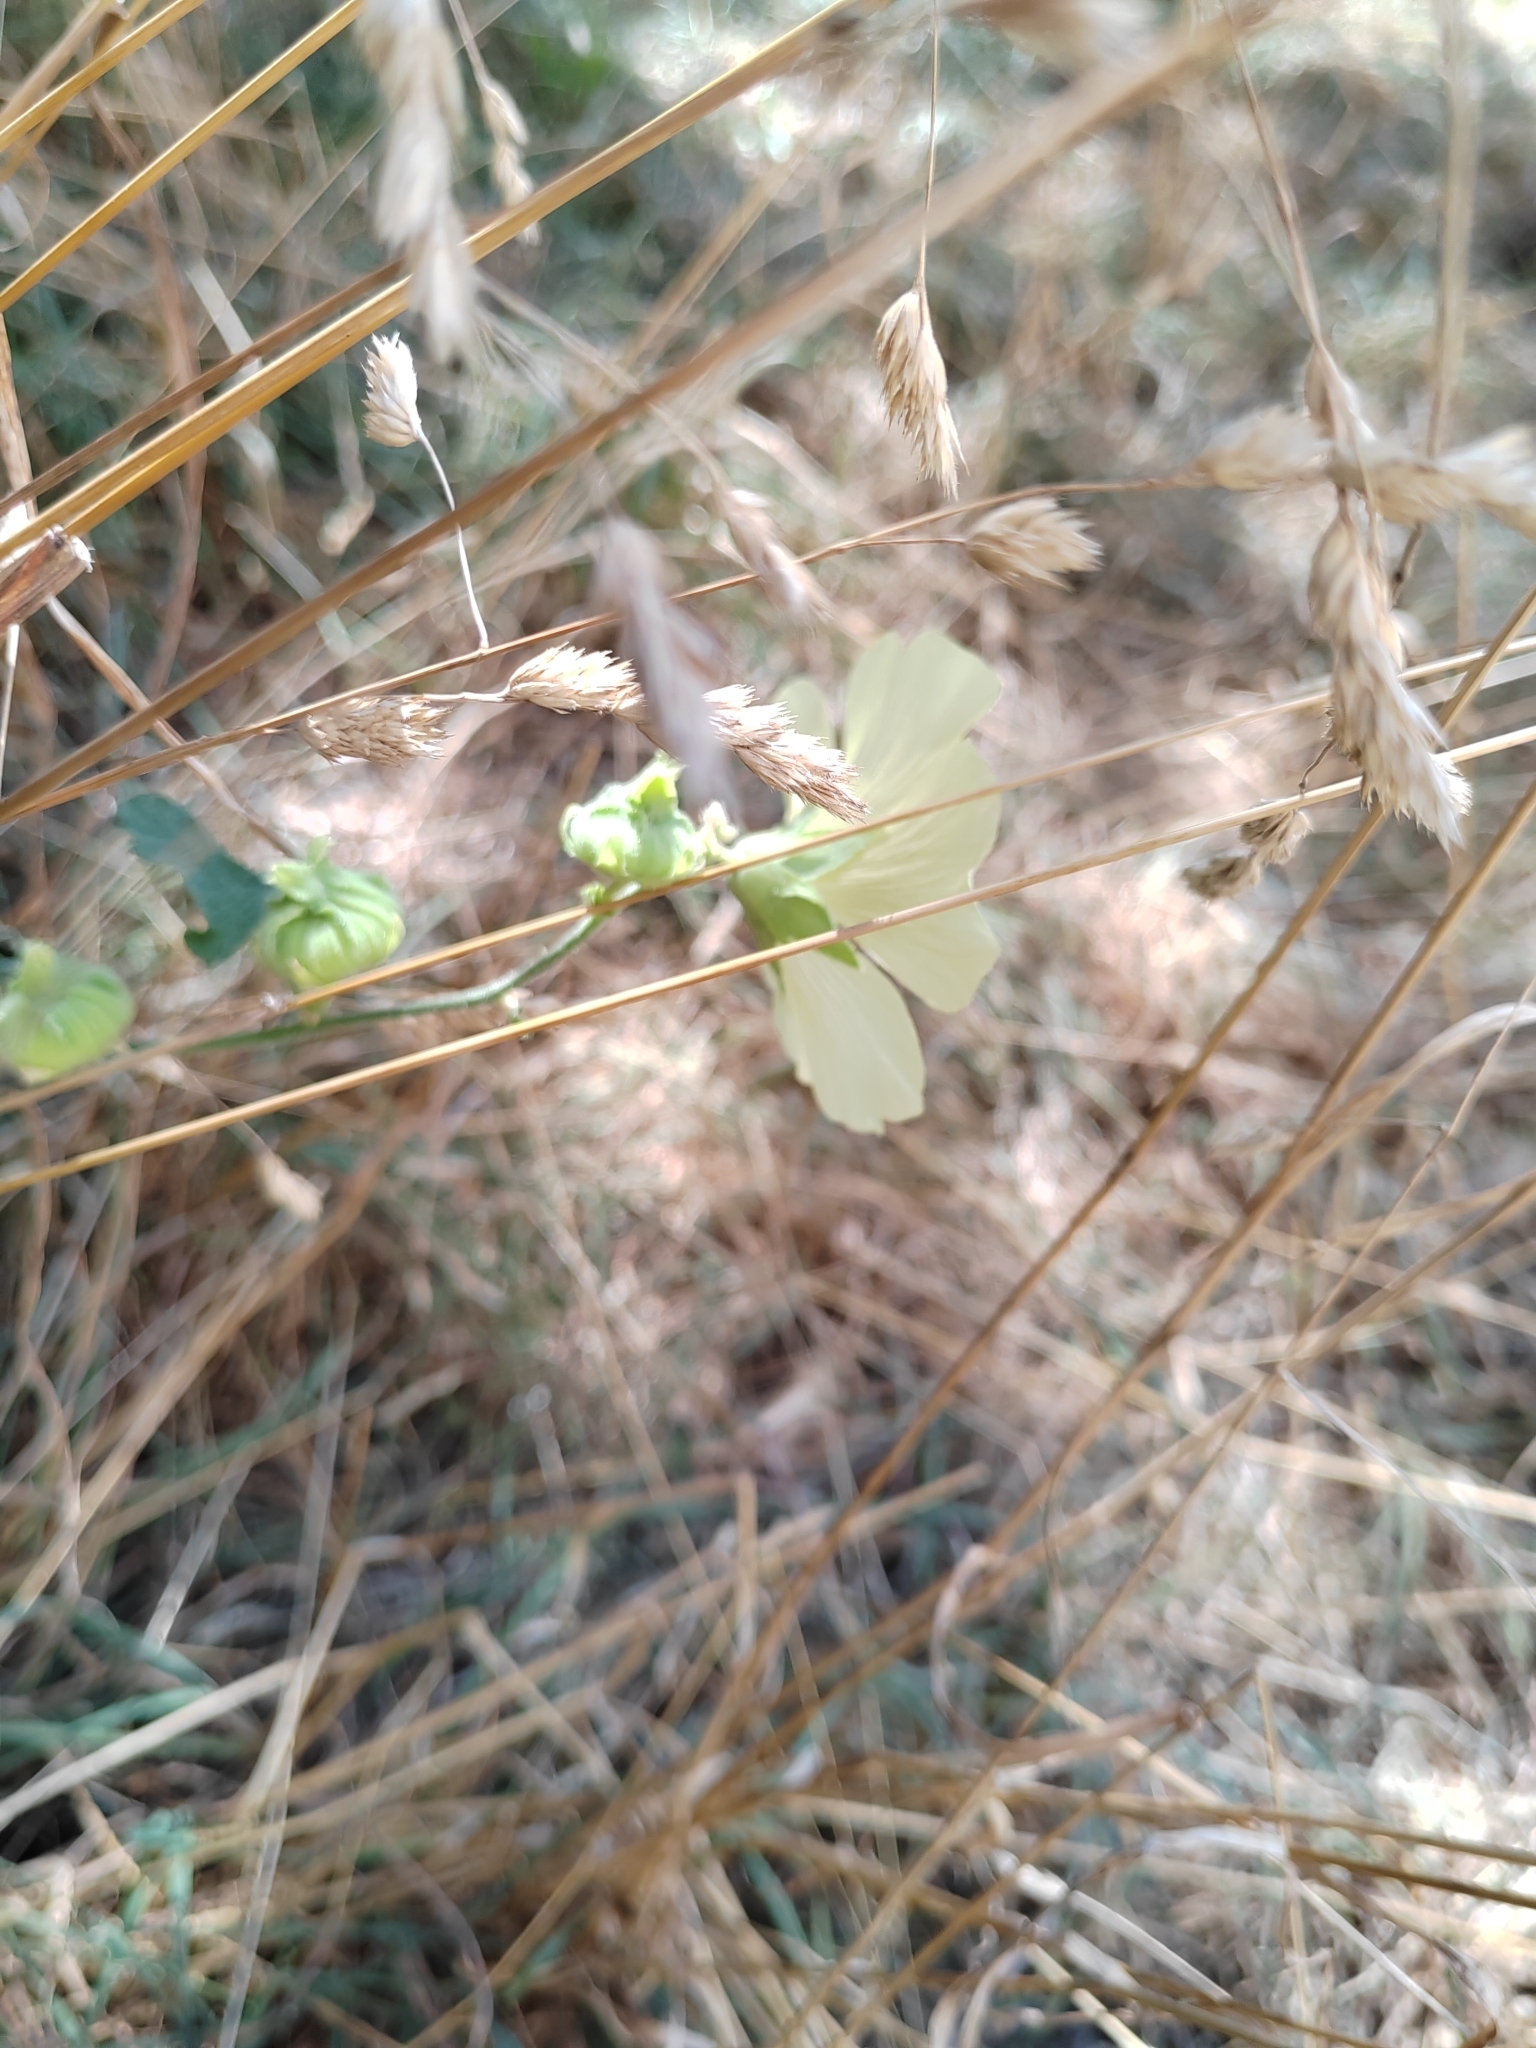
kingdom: Plantae
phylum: Tracheophyta
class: Magnoliopsida
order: Malvales
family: Malvaceae
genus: Alcea
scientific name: Alcea rugosa
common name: Russian hollyhock
